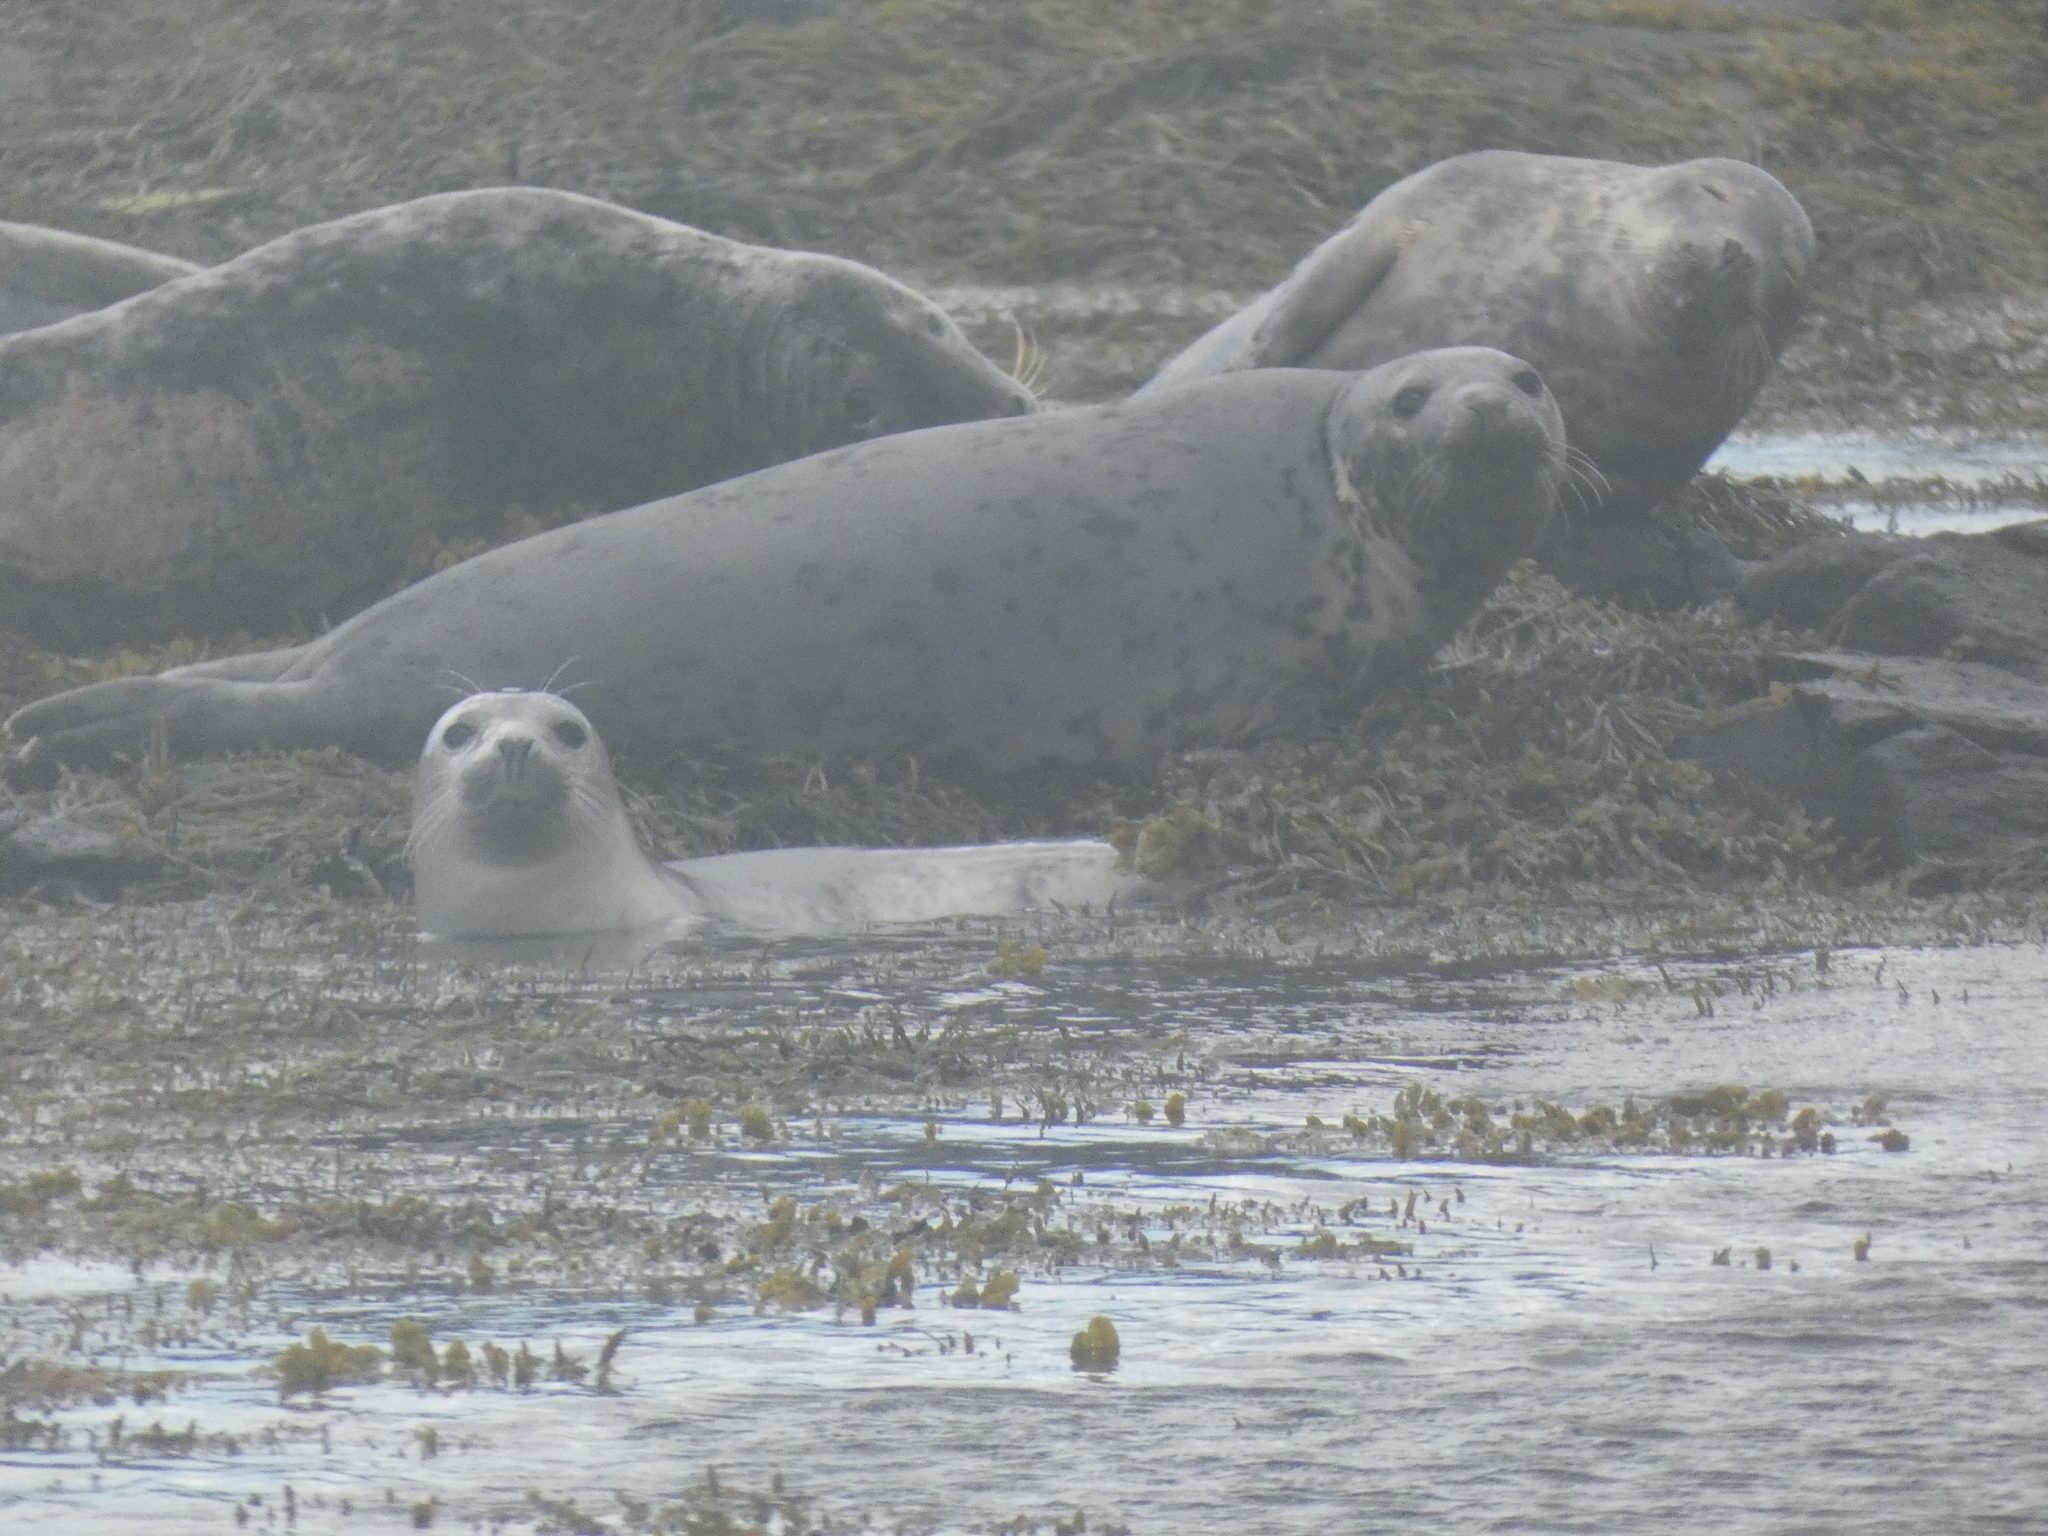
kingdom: Animalia
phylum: Chordata
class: Mammalia
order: Carnivora
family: Phocidae
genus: Halichoerus
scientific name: Halichoerus grypus
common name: Grey seal
